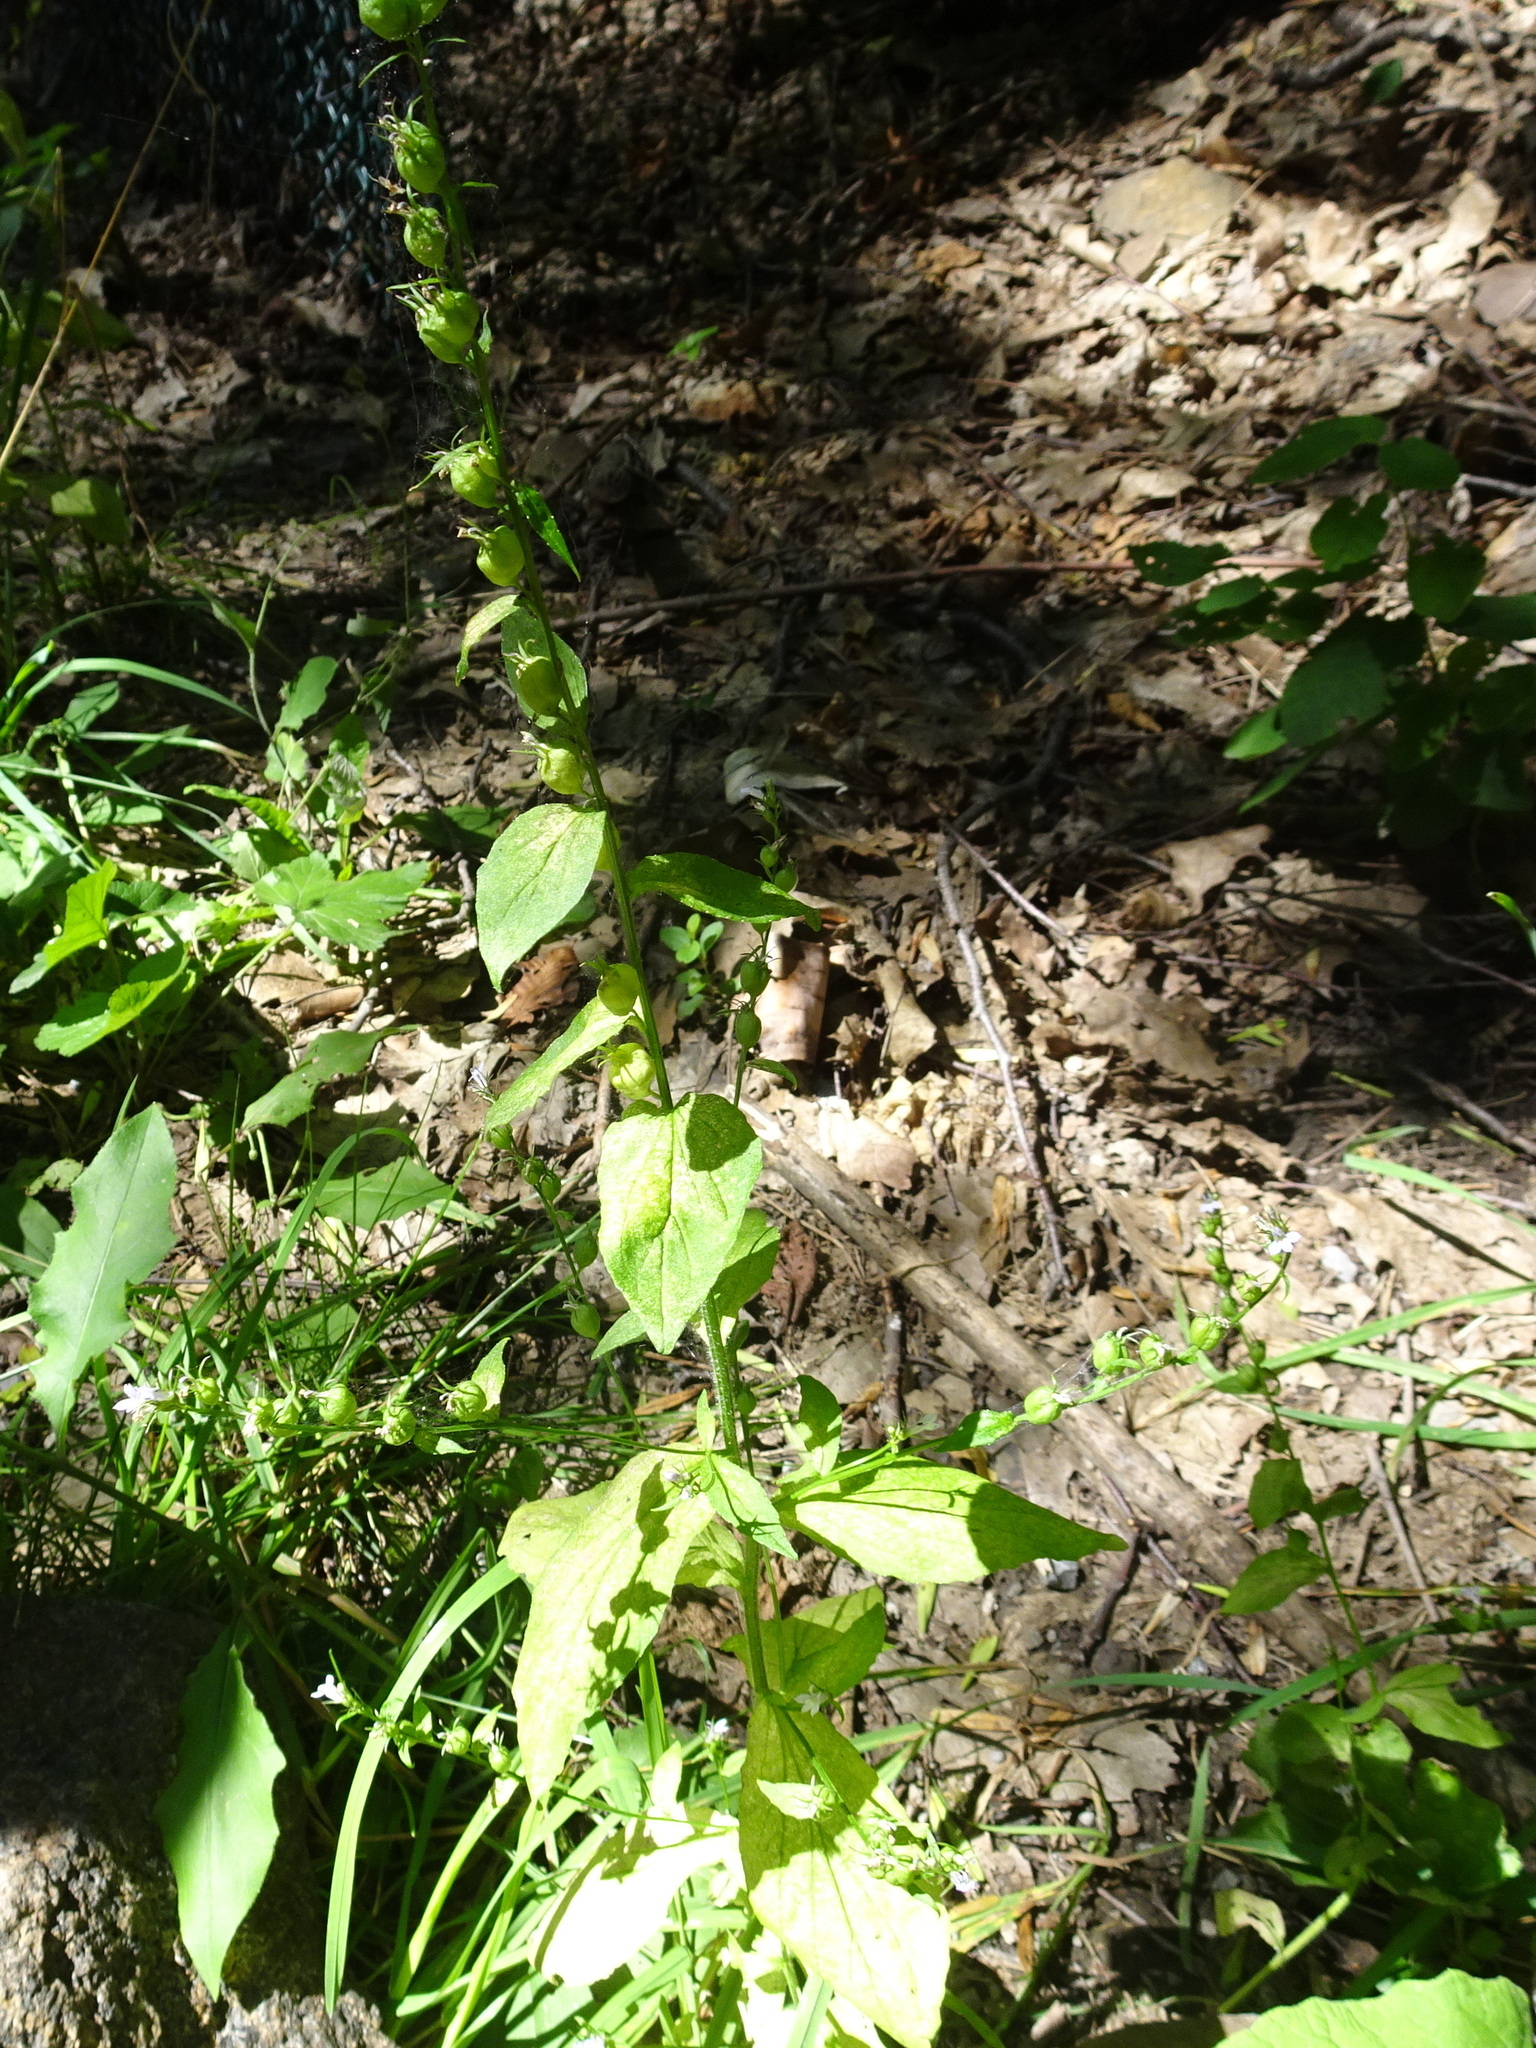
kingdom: Plantae
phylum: Tracheophyta
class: Magnoliopsida
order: Asterales
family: Campanulaceae
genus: Lobelia
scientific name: Lobelia inflata
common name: Indian tobacco
